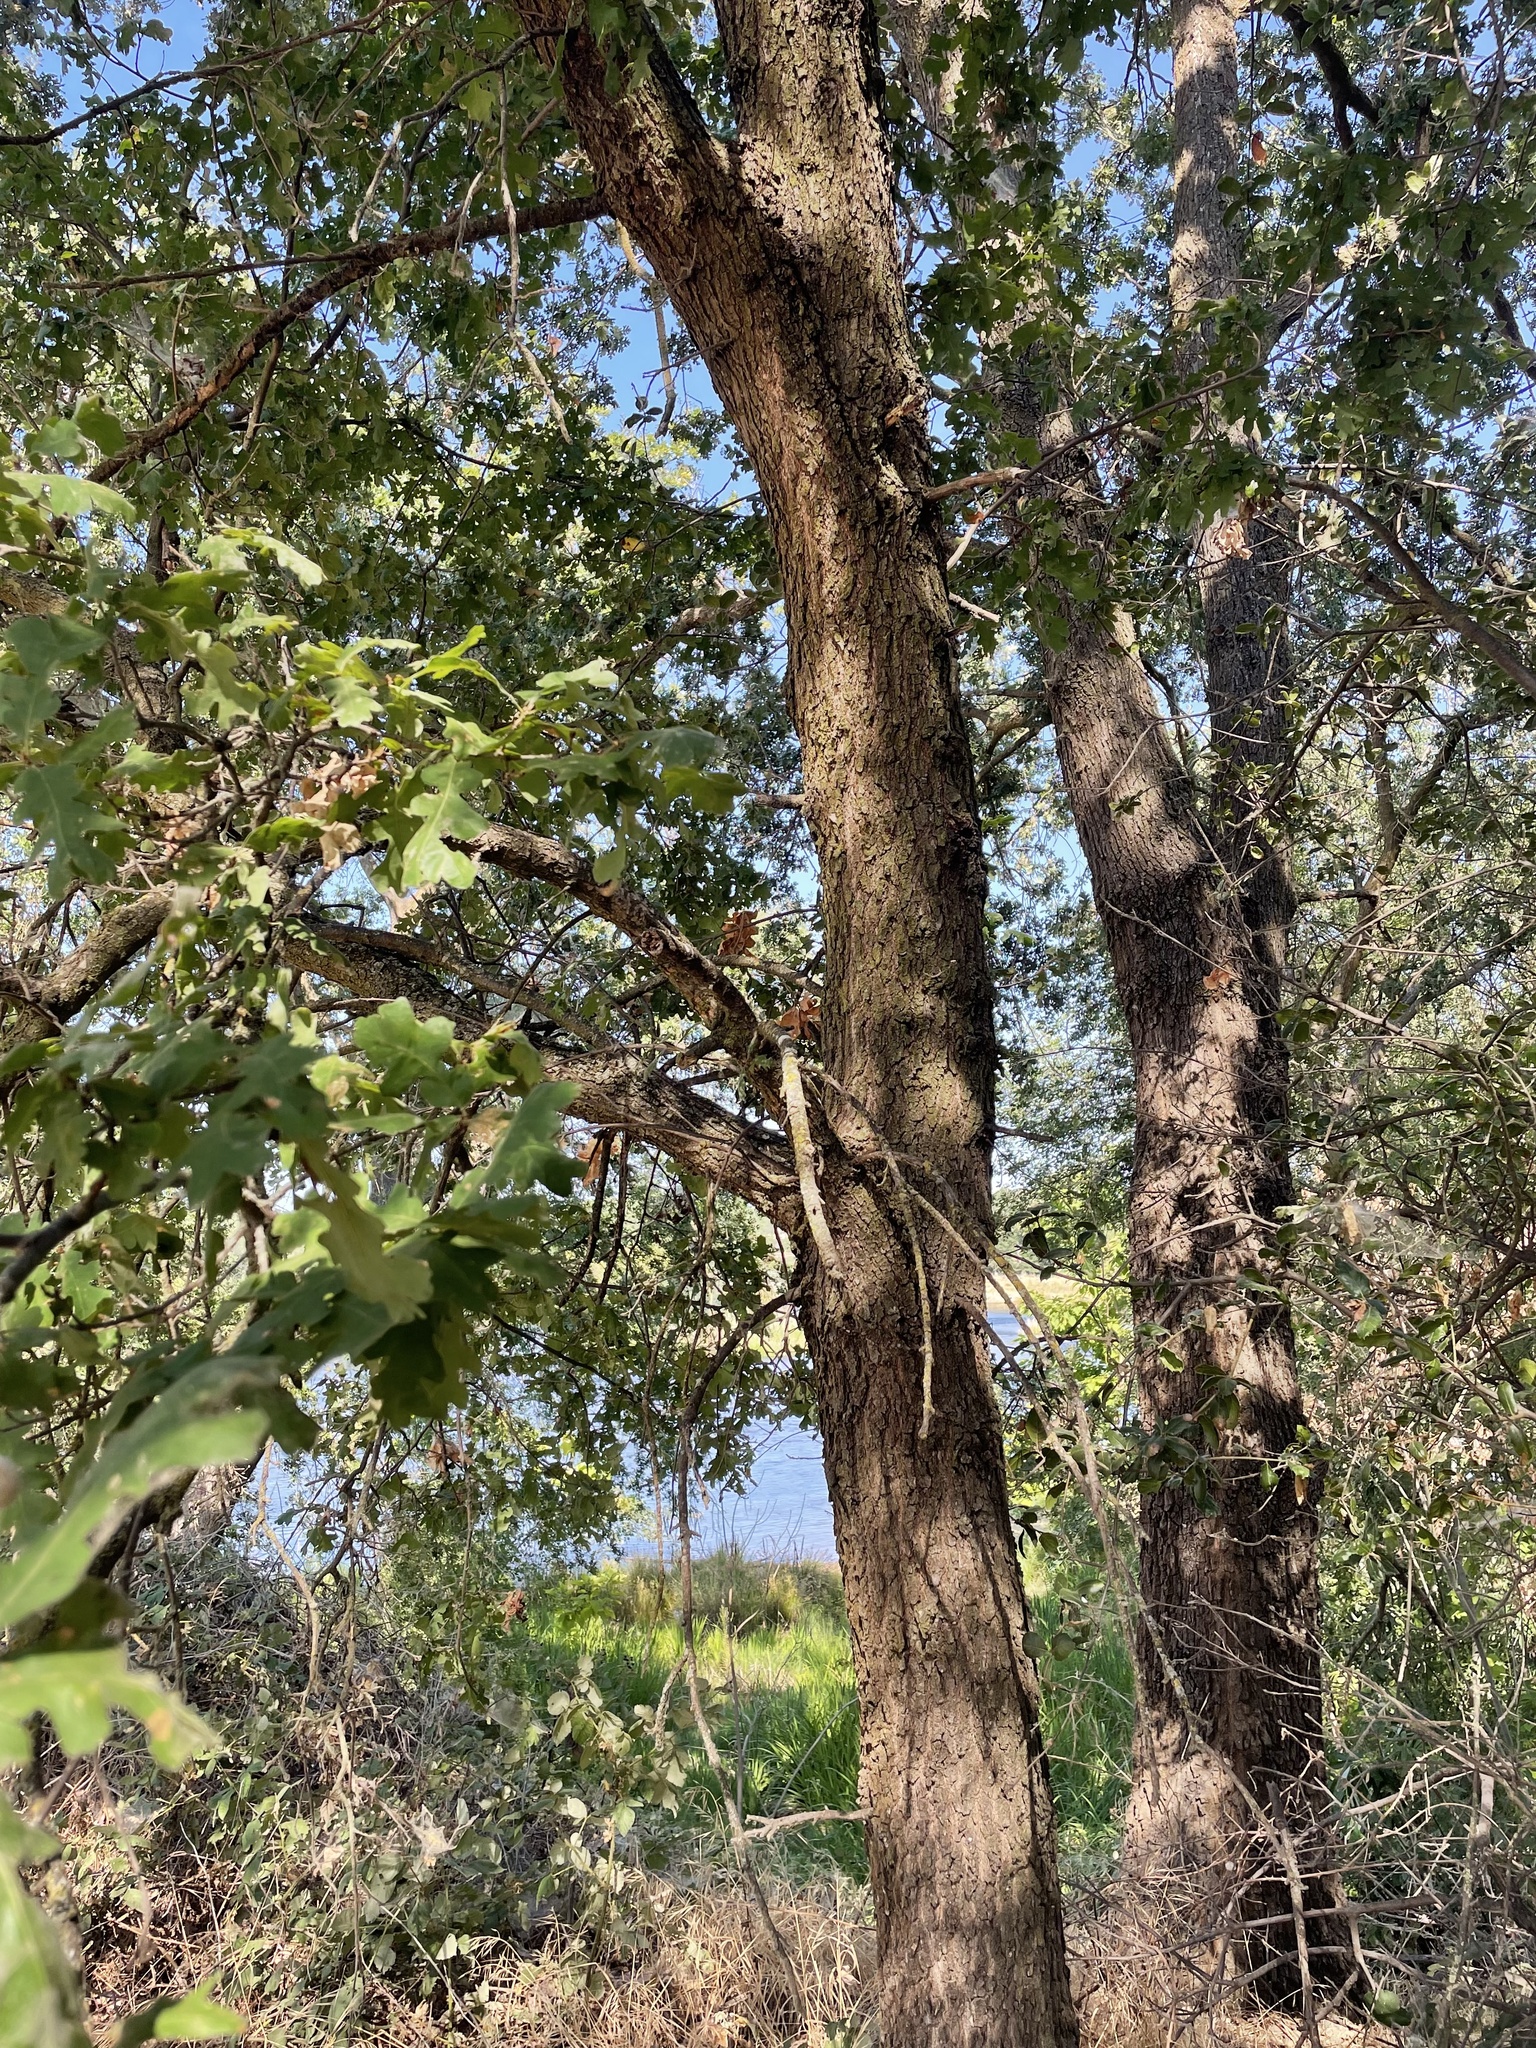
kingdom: Plantae
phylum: Tracheophyta
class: Magnoliopsida
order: Fagales
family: Fagaceae
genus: Quercus
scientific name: Quercus lobata
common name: Valley oak
